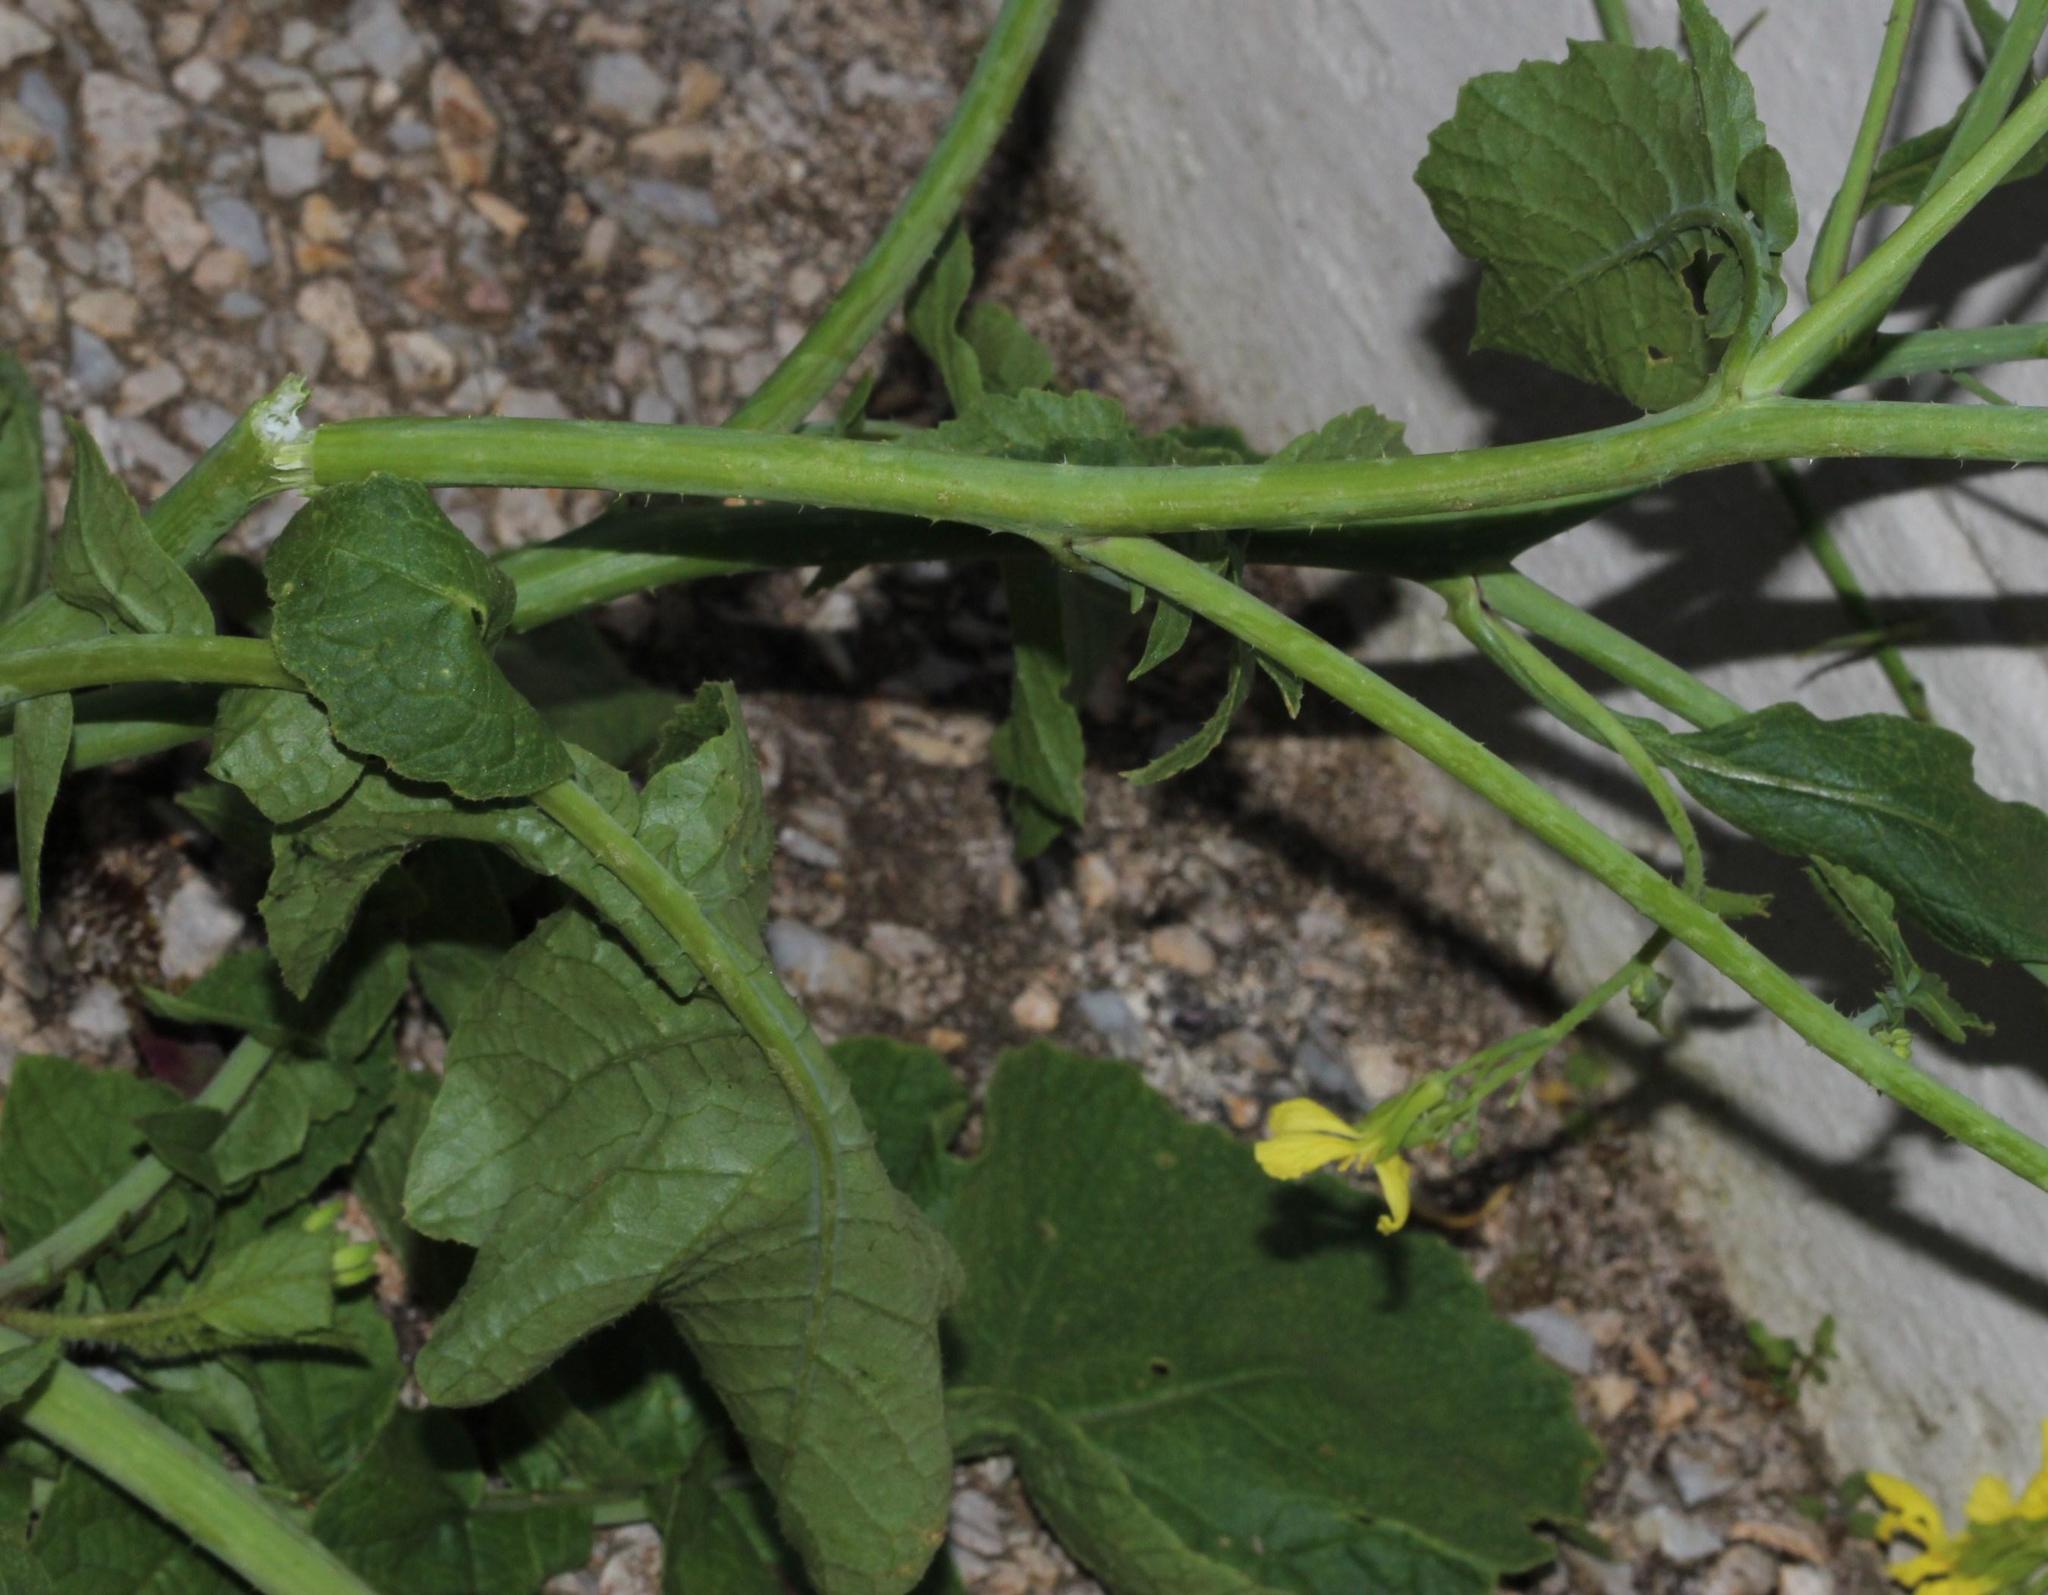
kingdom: Plantae
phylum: Tracheophyta
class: Magnoliopsida
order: Brassicales
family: Brassicaceae
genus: Raphanus
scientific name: Raphanus raphanistrum
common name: Wild radish
